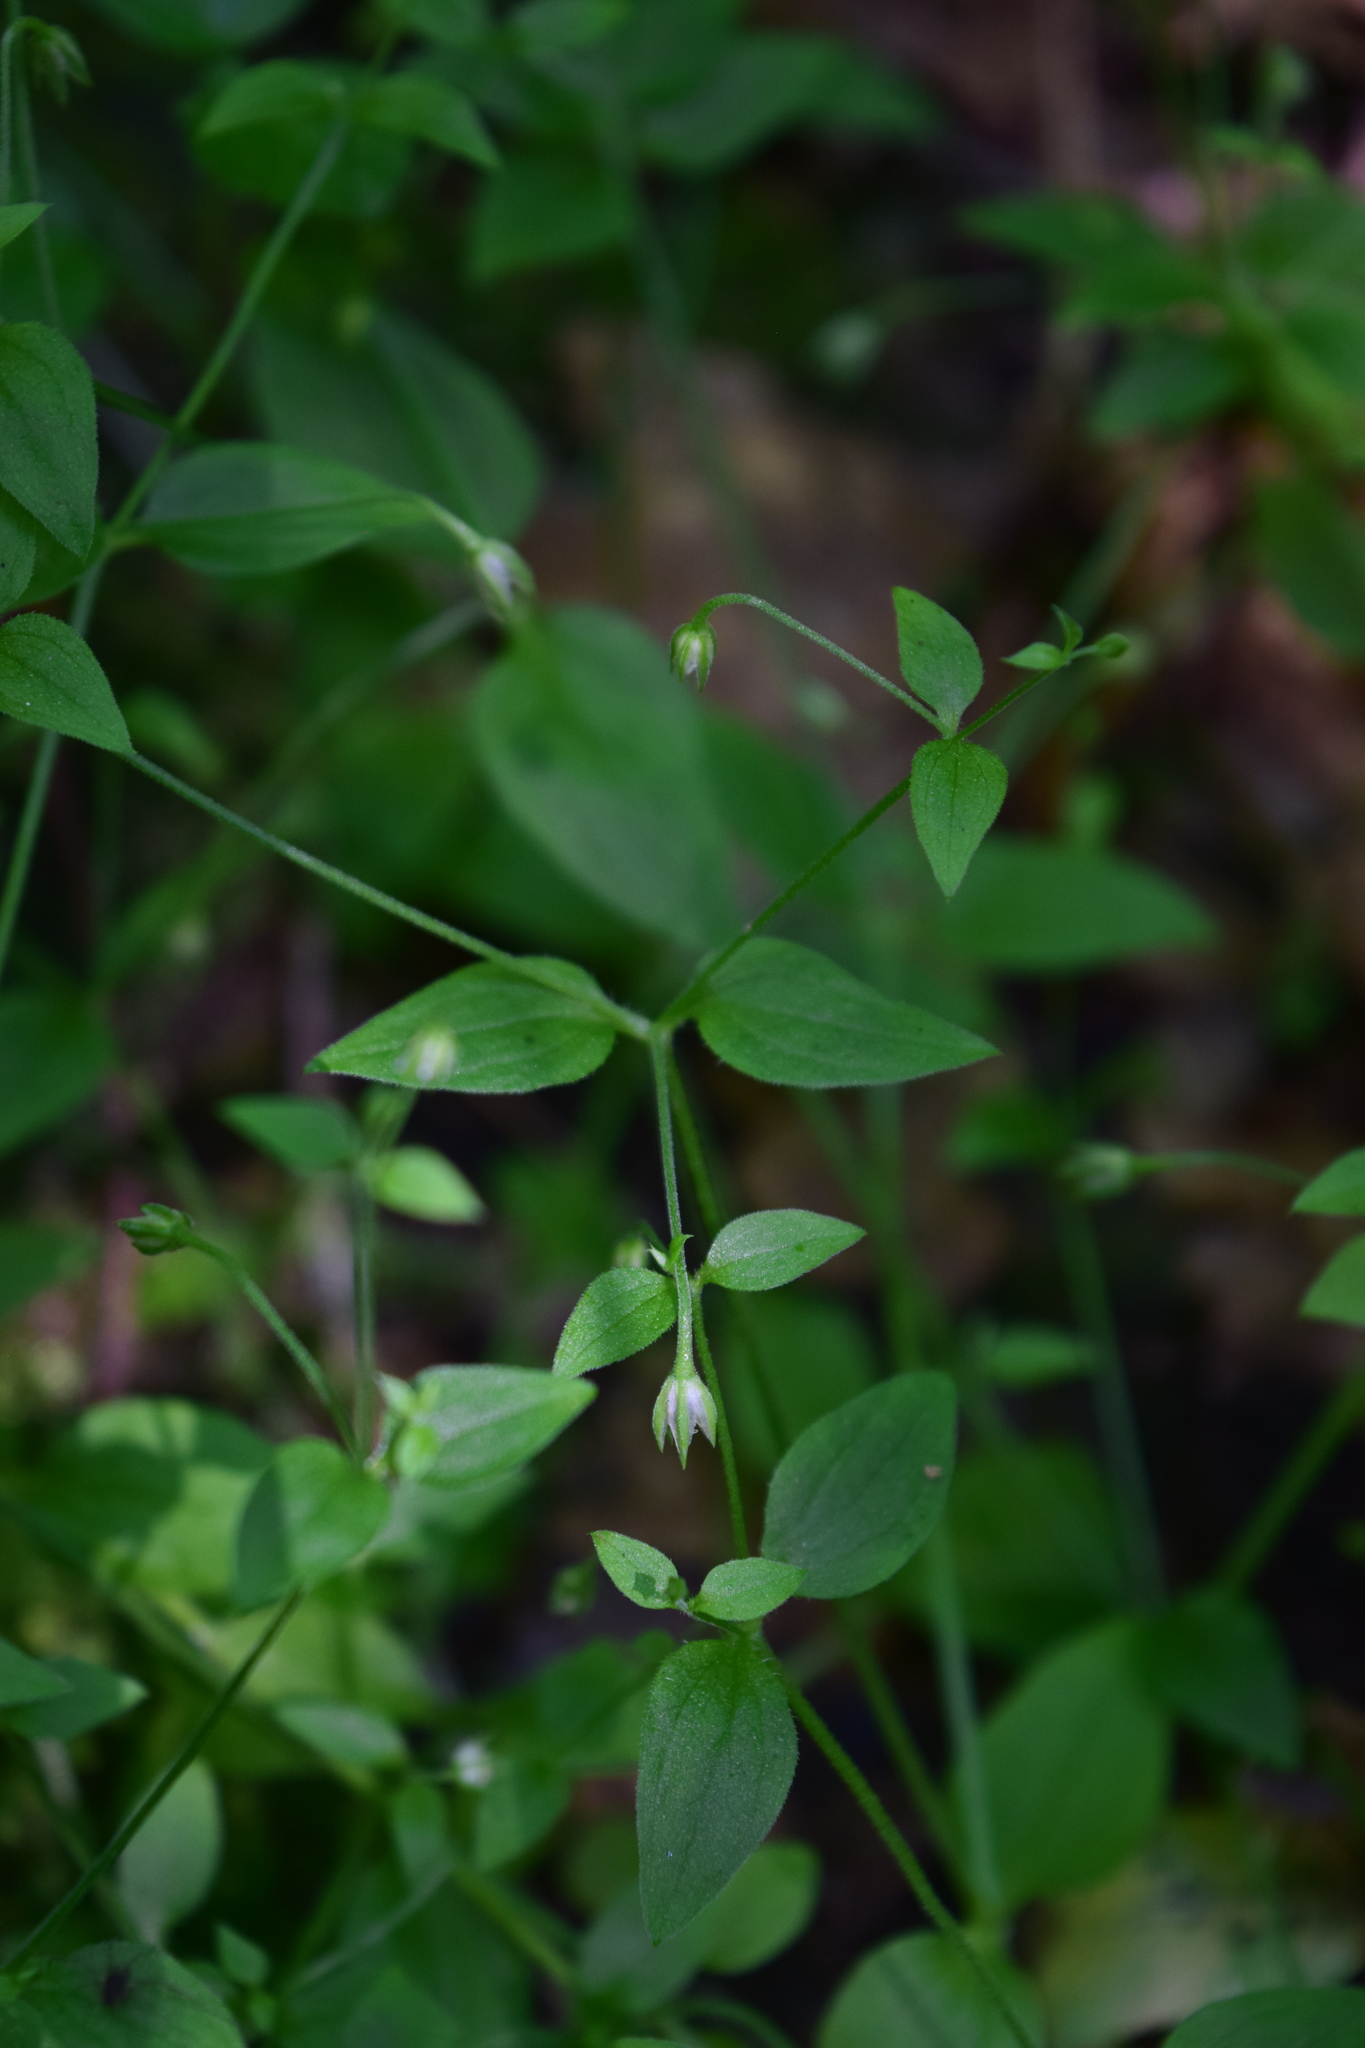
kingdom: Plantae
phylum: Tracheophyta
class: Magnoliopsida
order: Caryophyllales
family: Caryophyllaceae
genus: Moehringia
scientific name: Moehringia trinervia
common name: Three-nerved sandwort
